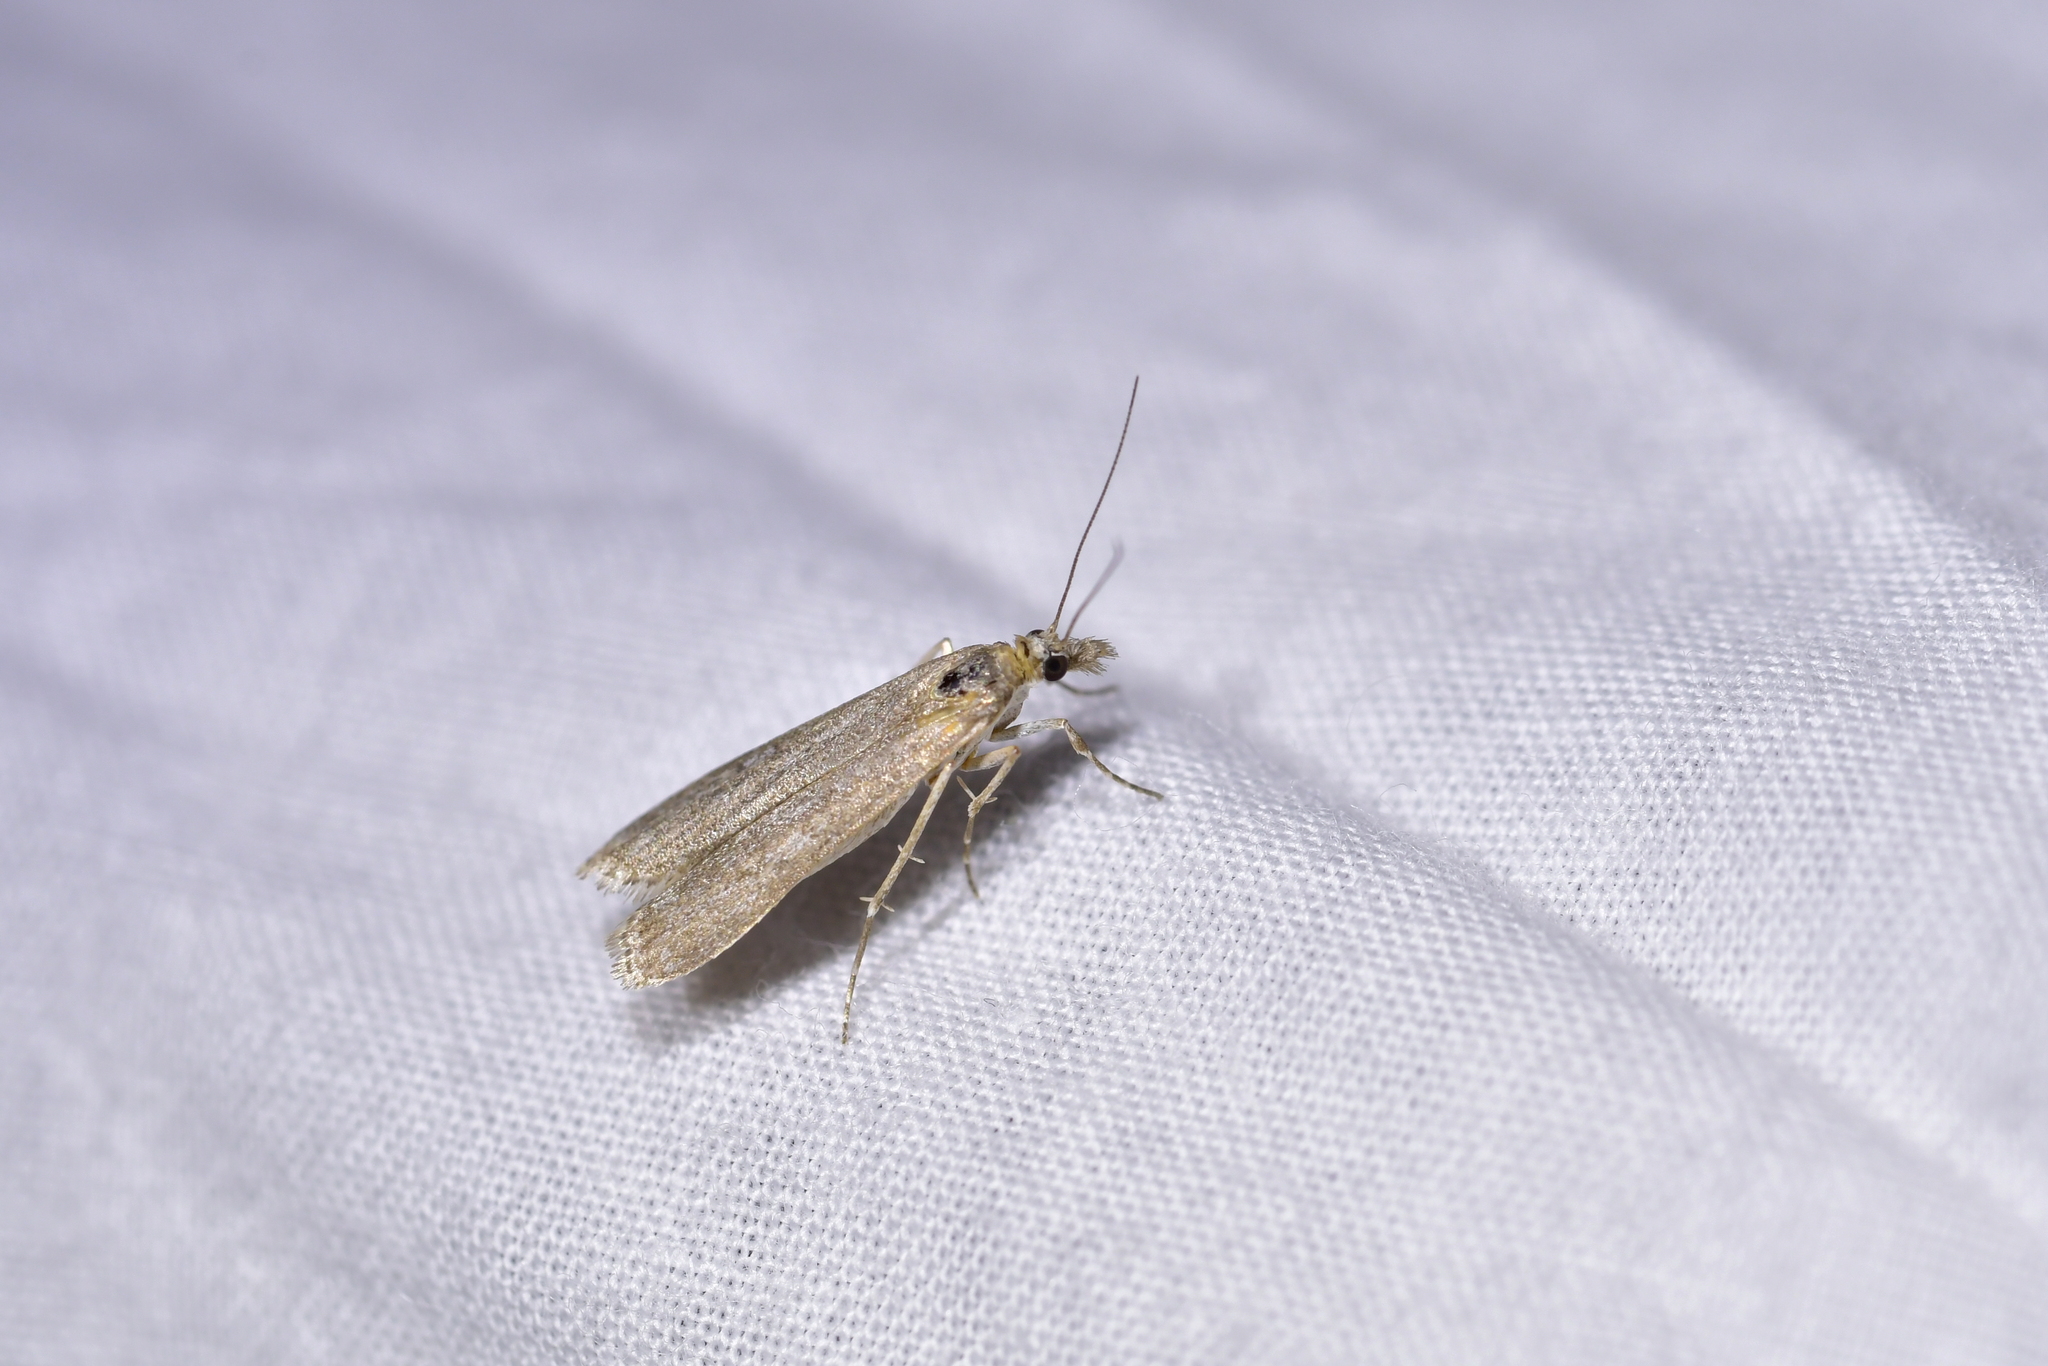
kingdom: Animalia
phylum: Arthropoda
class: Insecta
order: Lepidoptera
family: Crambidae
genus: Eudonia
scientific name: Eudonia leptalea
